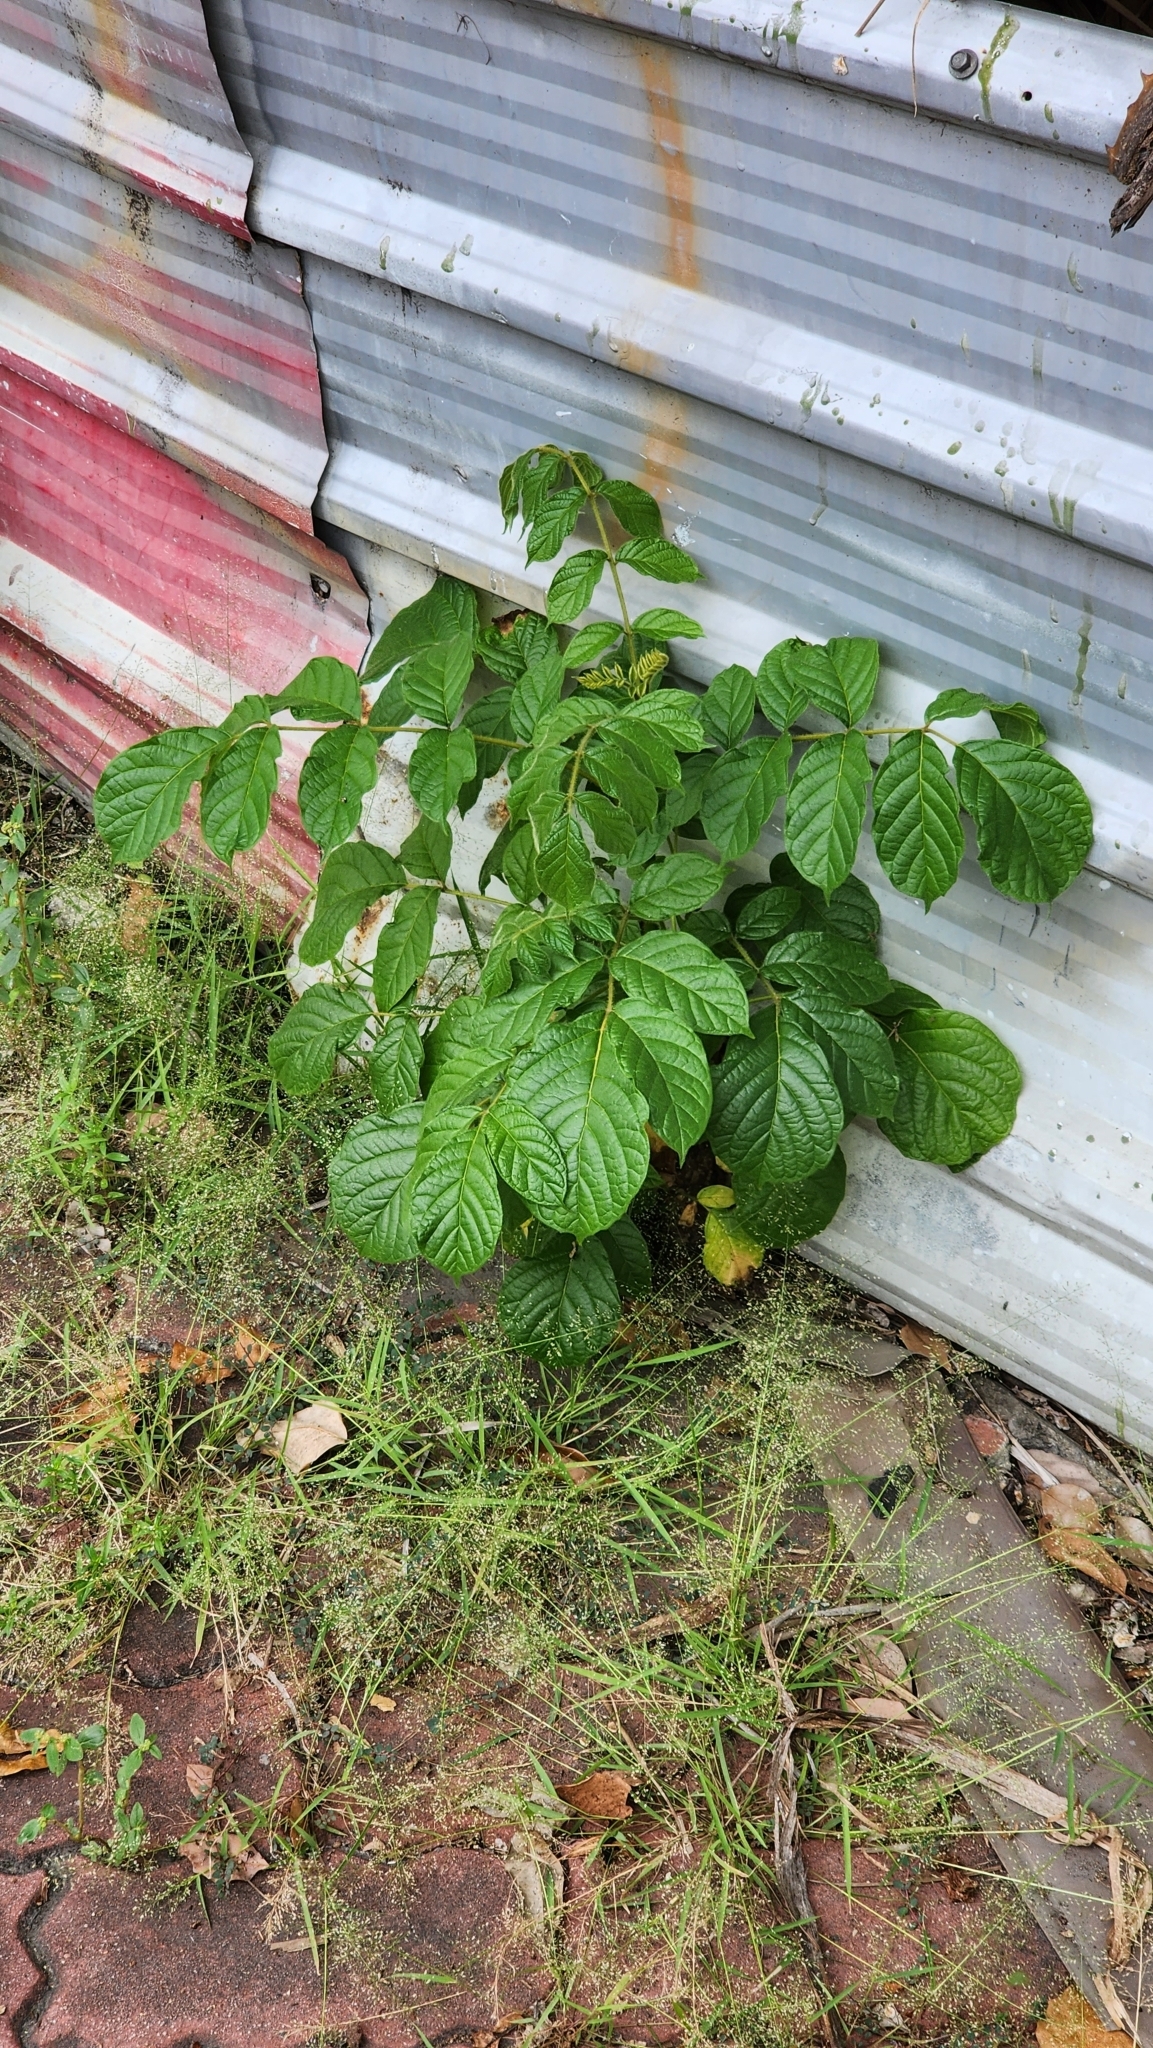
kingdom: Plantae
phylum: Tracheophyta
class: Magnoliopsida
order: Lamiales
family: Bignoniaceae
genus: Spathodea
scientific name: Spathodea campanulata
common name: African tuliptree
